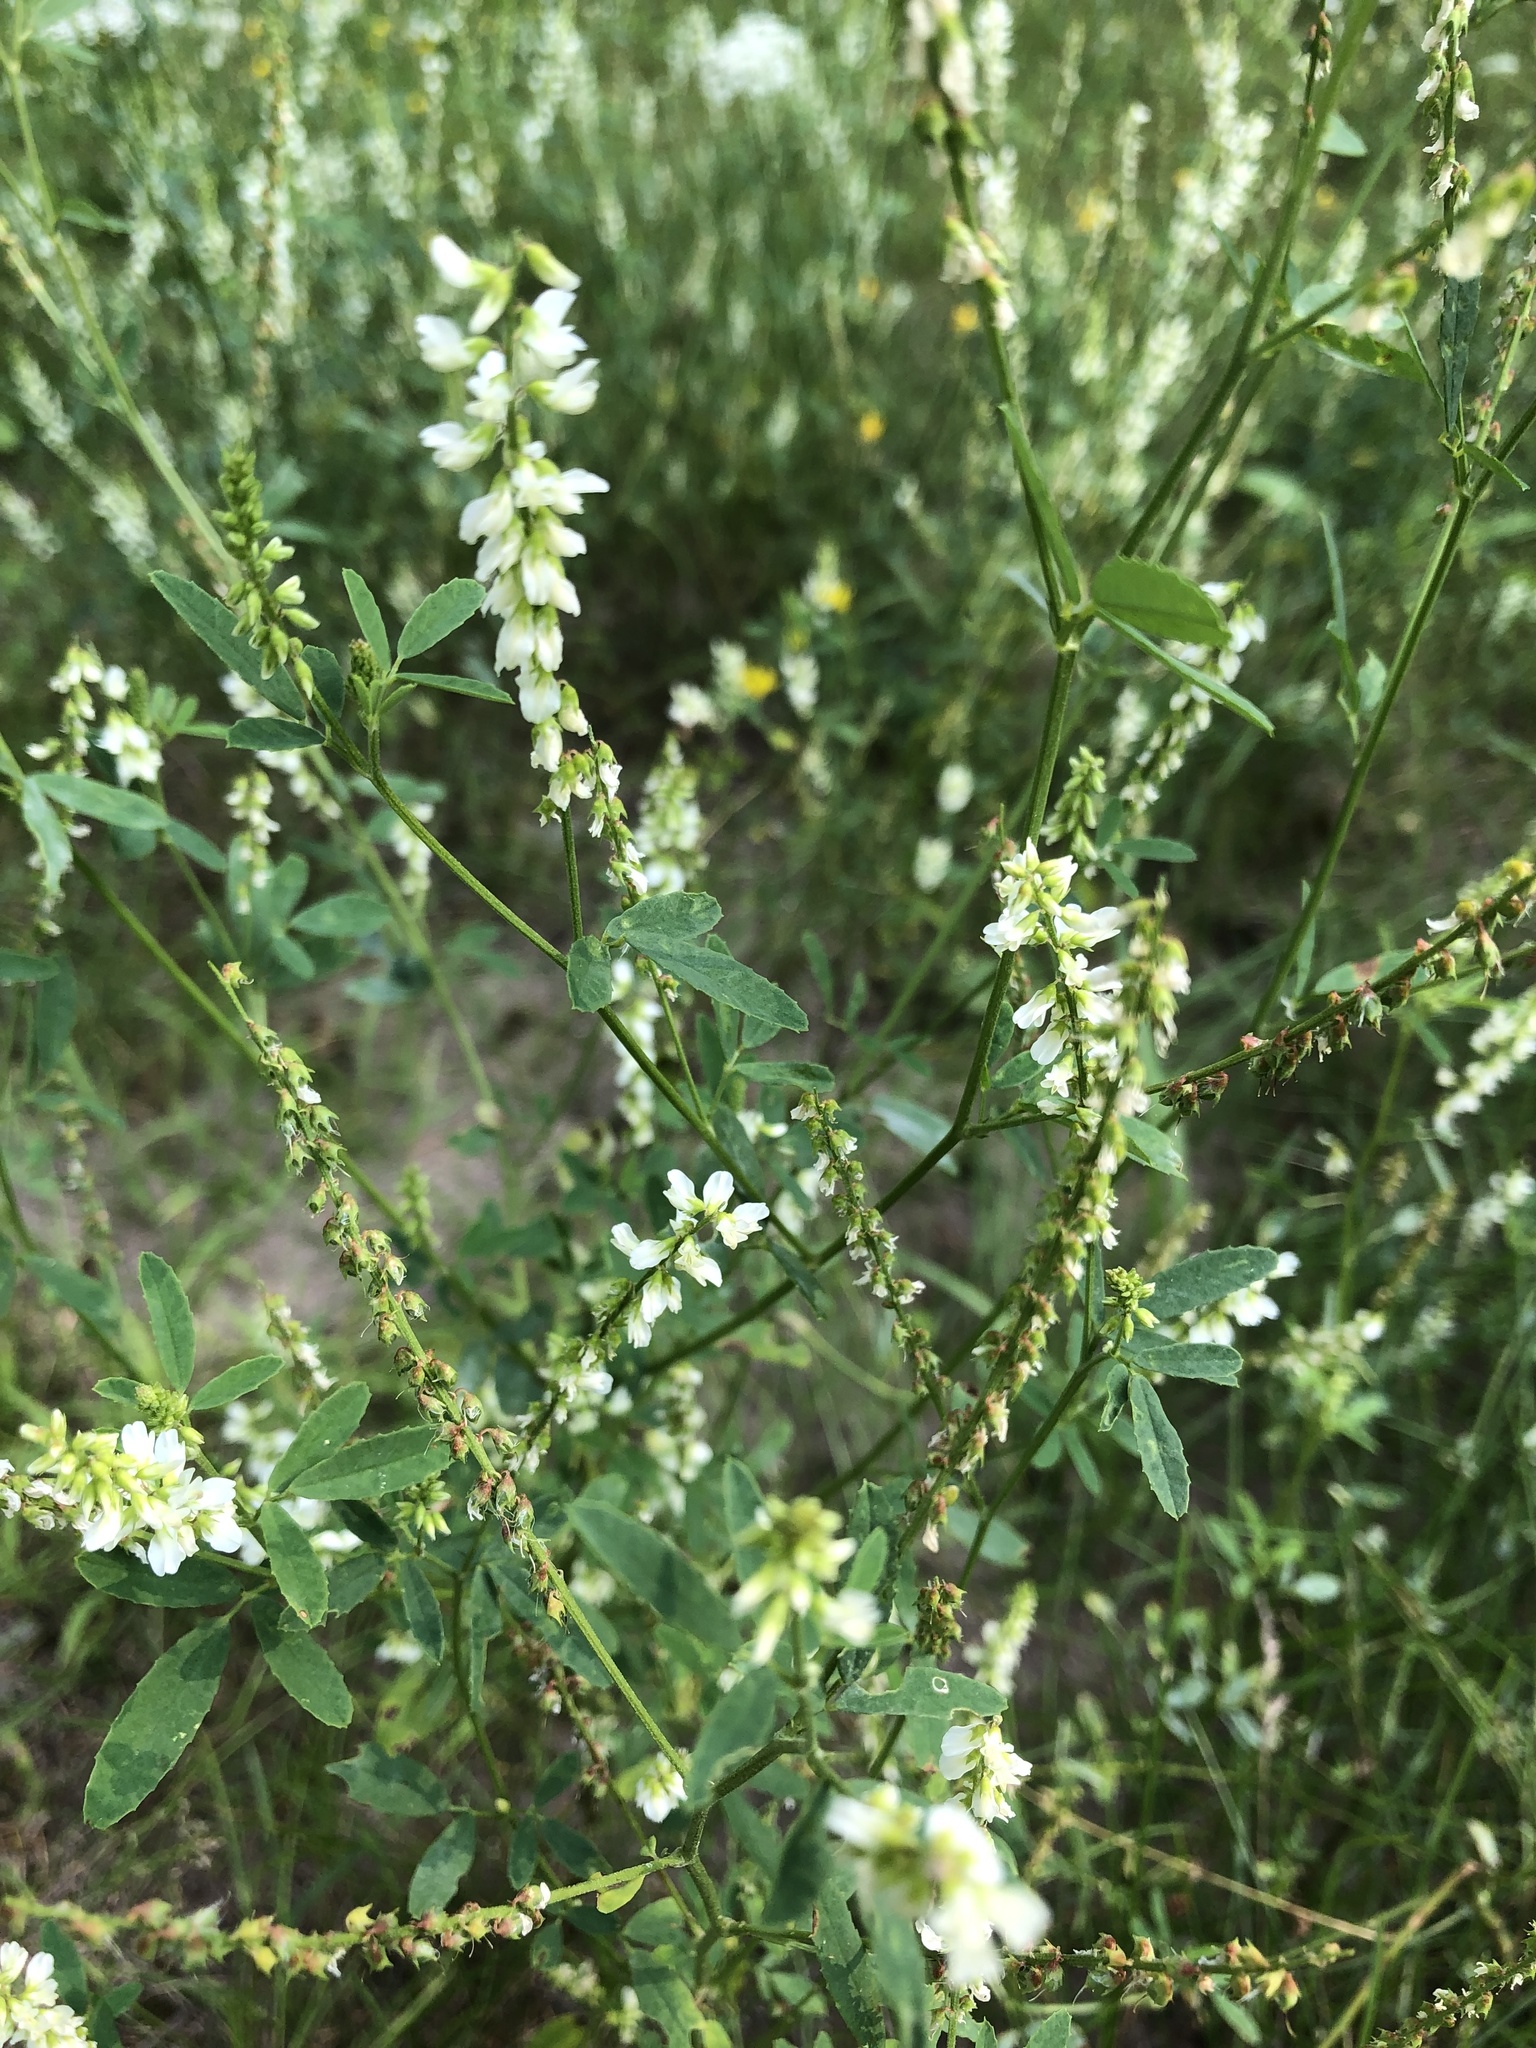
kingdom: Plantae
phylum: Tracheophyta
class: Magnoliopsida
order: Fabales
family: Fabaceae
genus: Melilotus
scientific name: Melilotus albus
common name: White melilot
